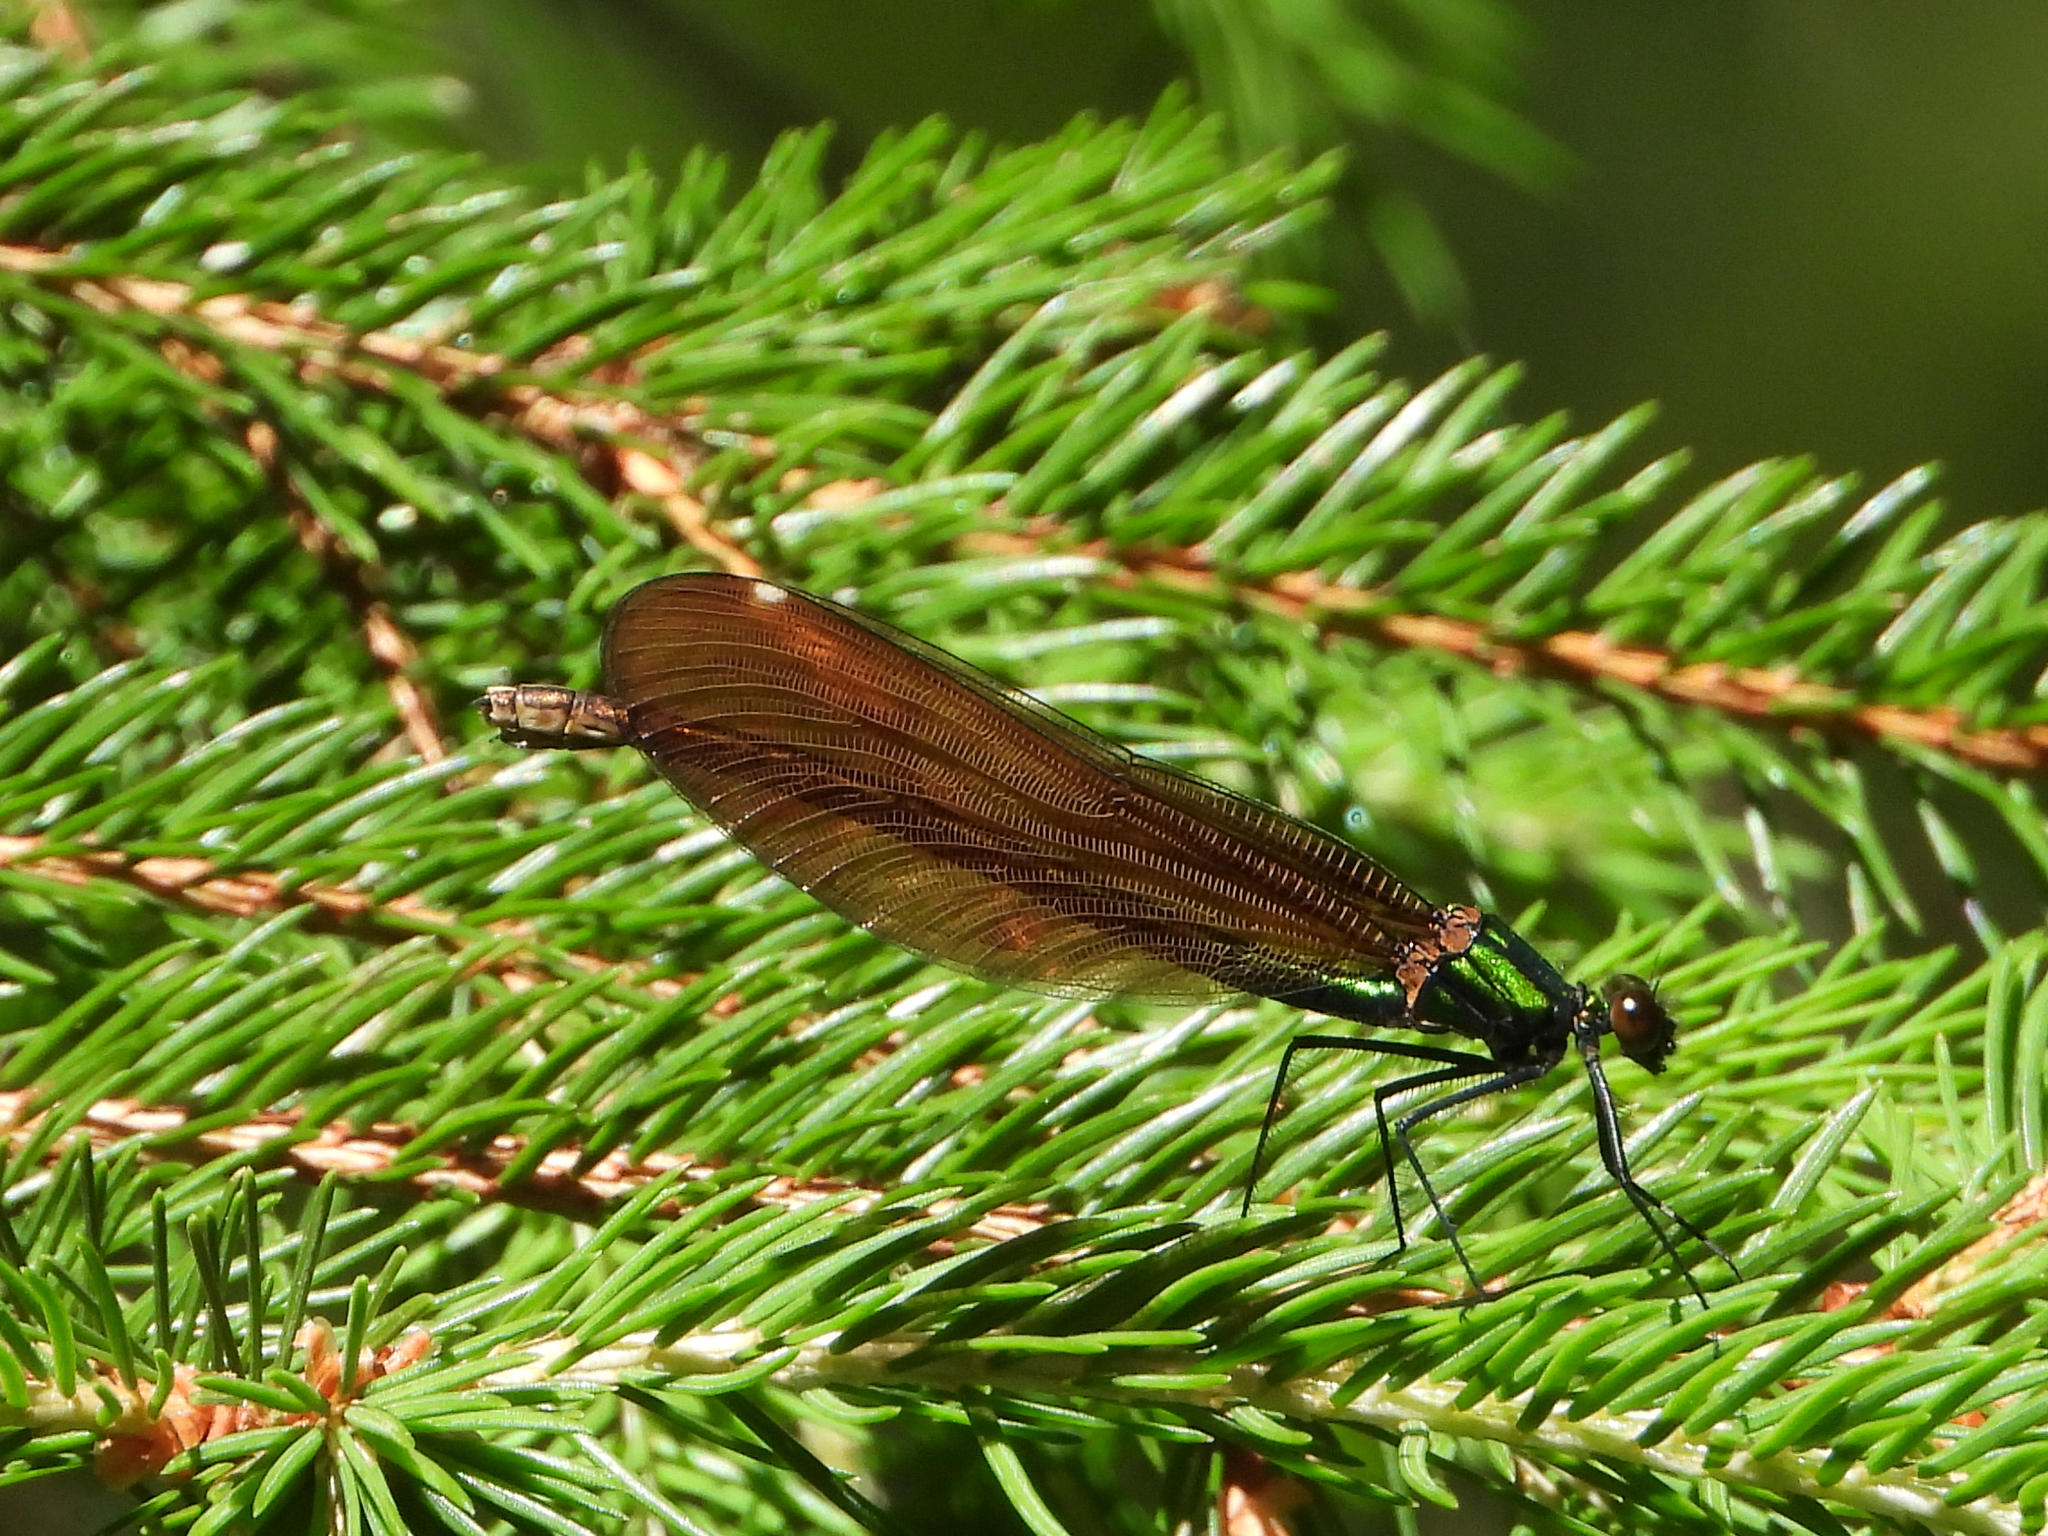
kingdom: Animalia
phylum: Arthropoda
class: Insecta
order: Odonata
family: Calopterygidae
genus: Calopteryx
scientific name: Calopteryx virgo
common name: Beautiful demoiselle
